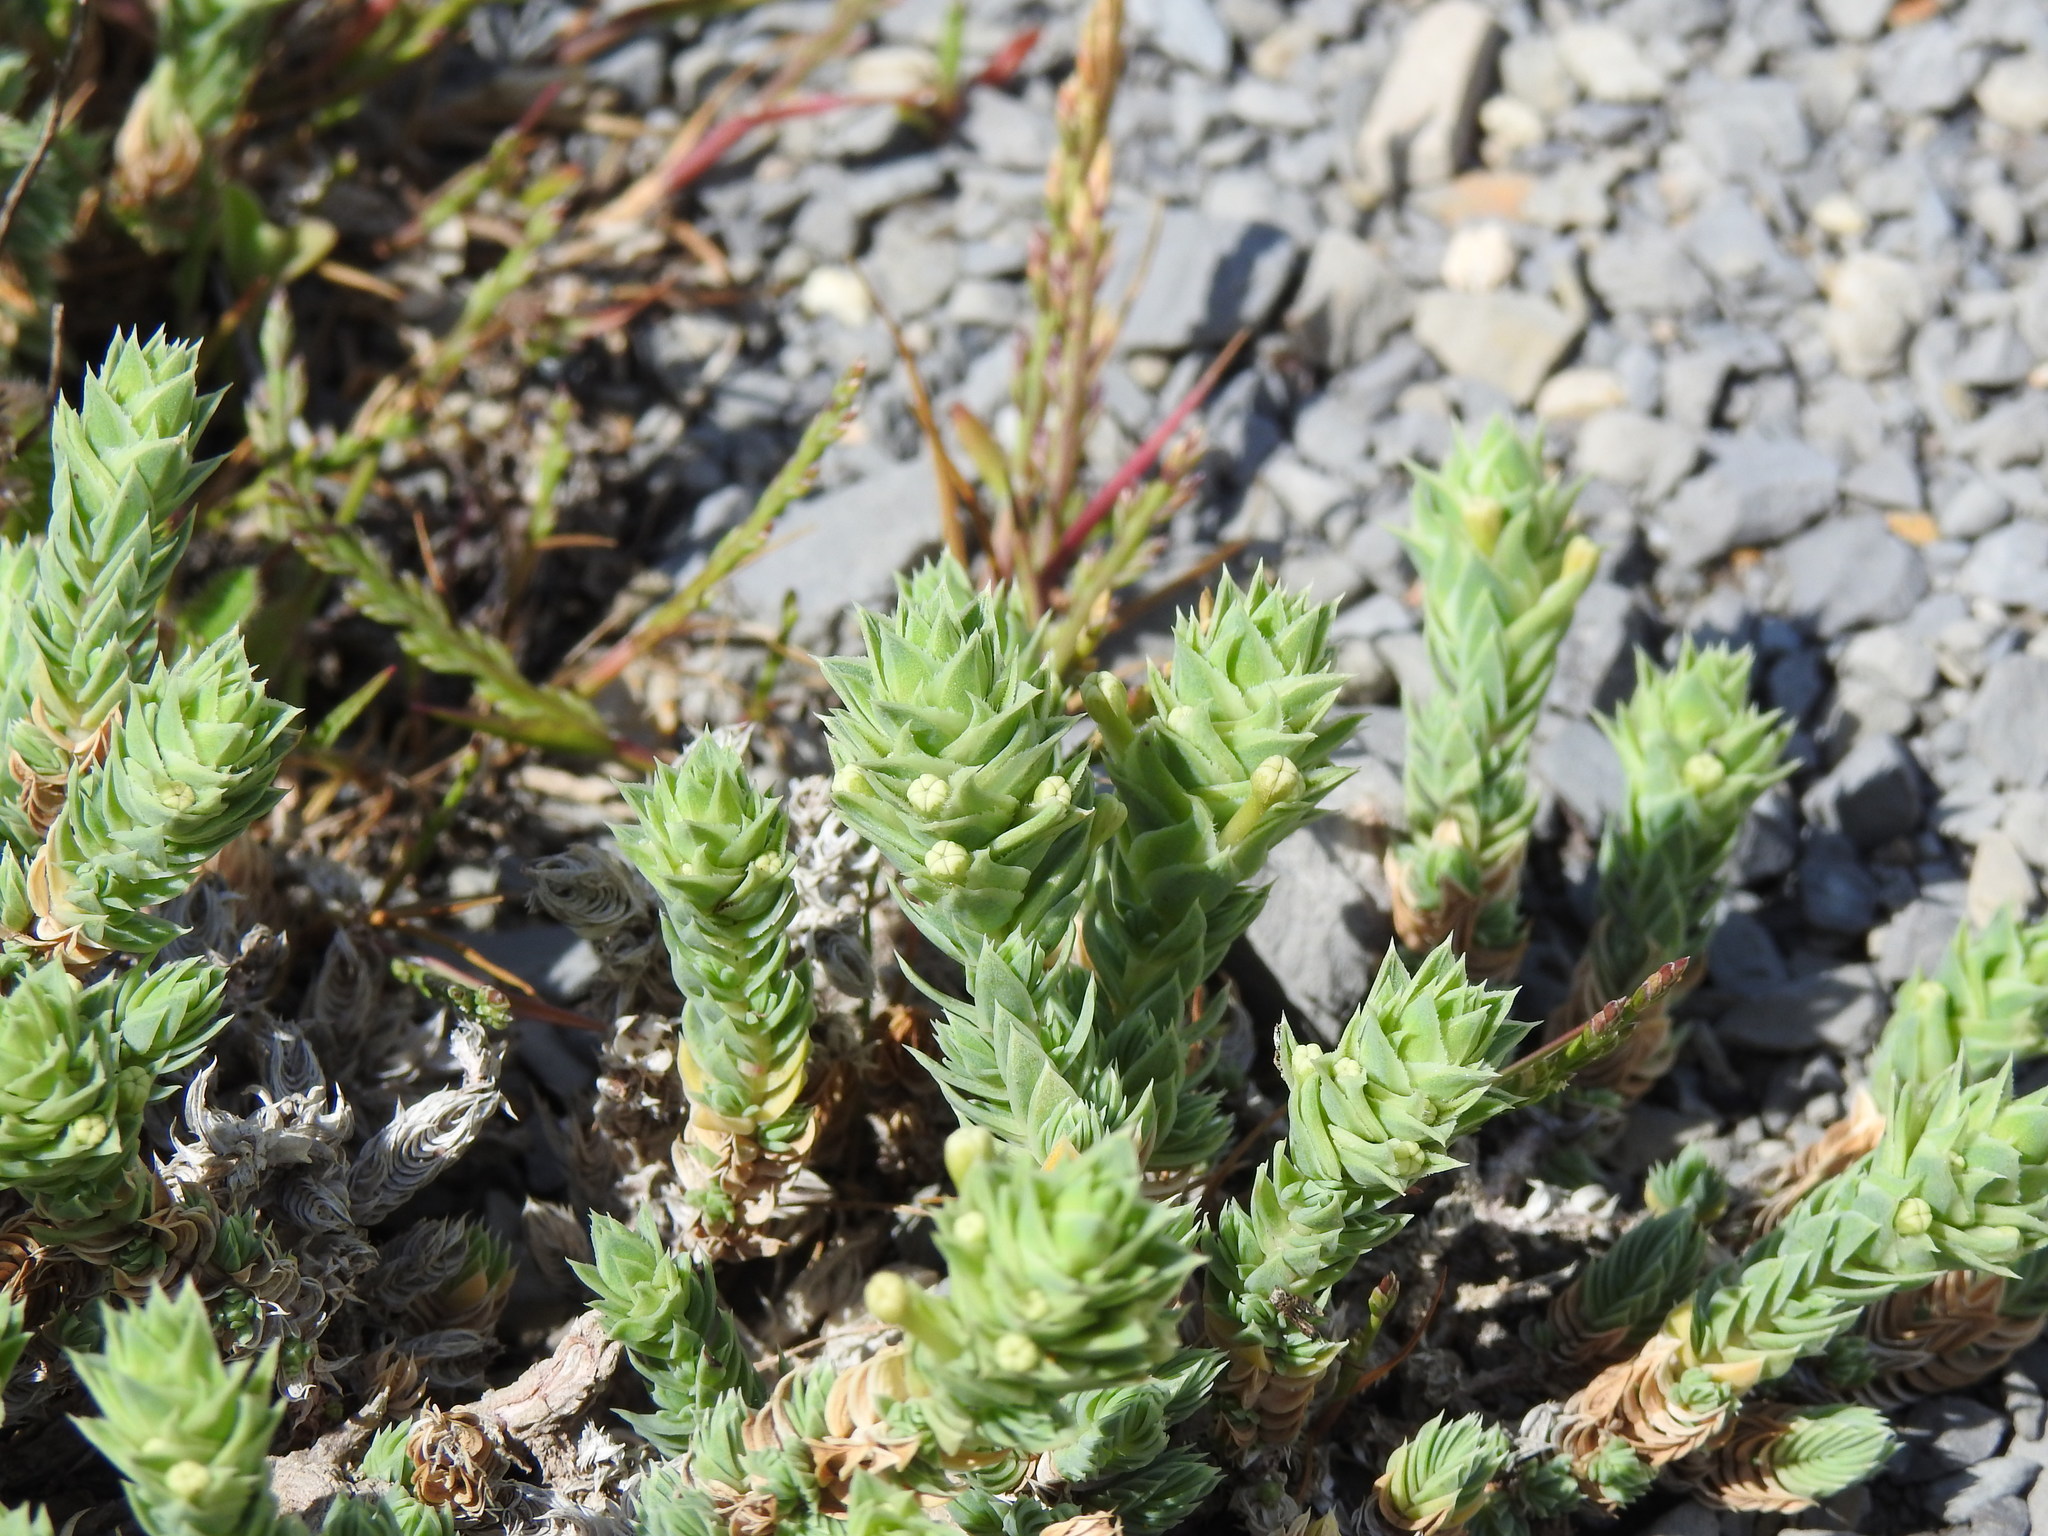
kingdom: Plantae
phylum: Tracheophyta
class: Magnoliopsida
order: Gentianales
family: Rubiaceae
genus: Crucianella
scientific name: Crucianella maritima
